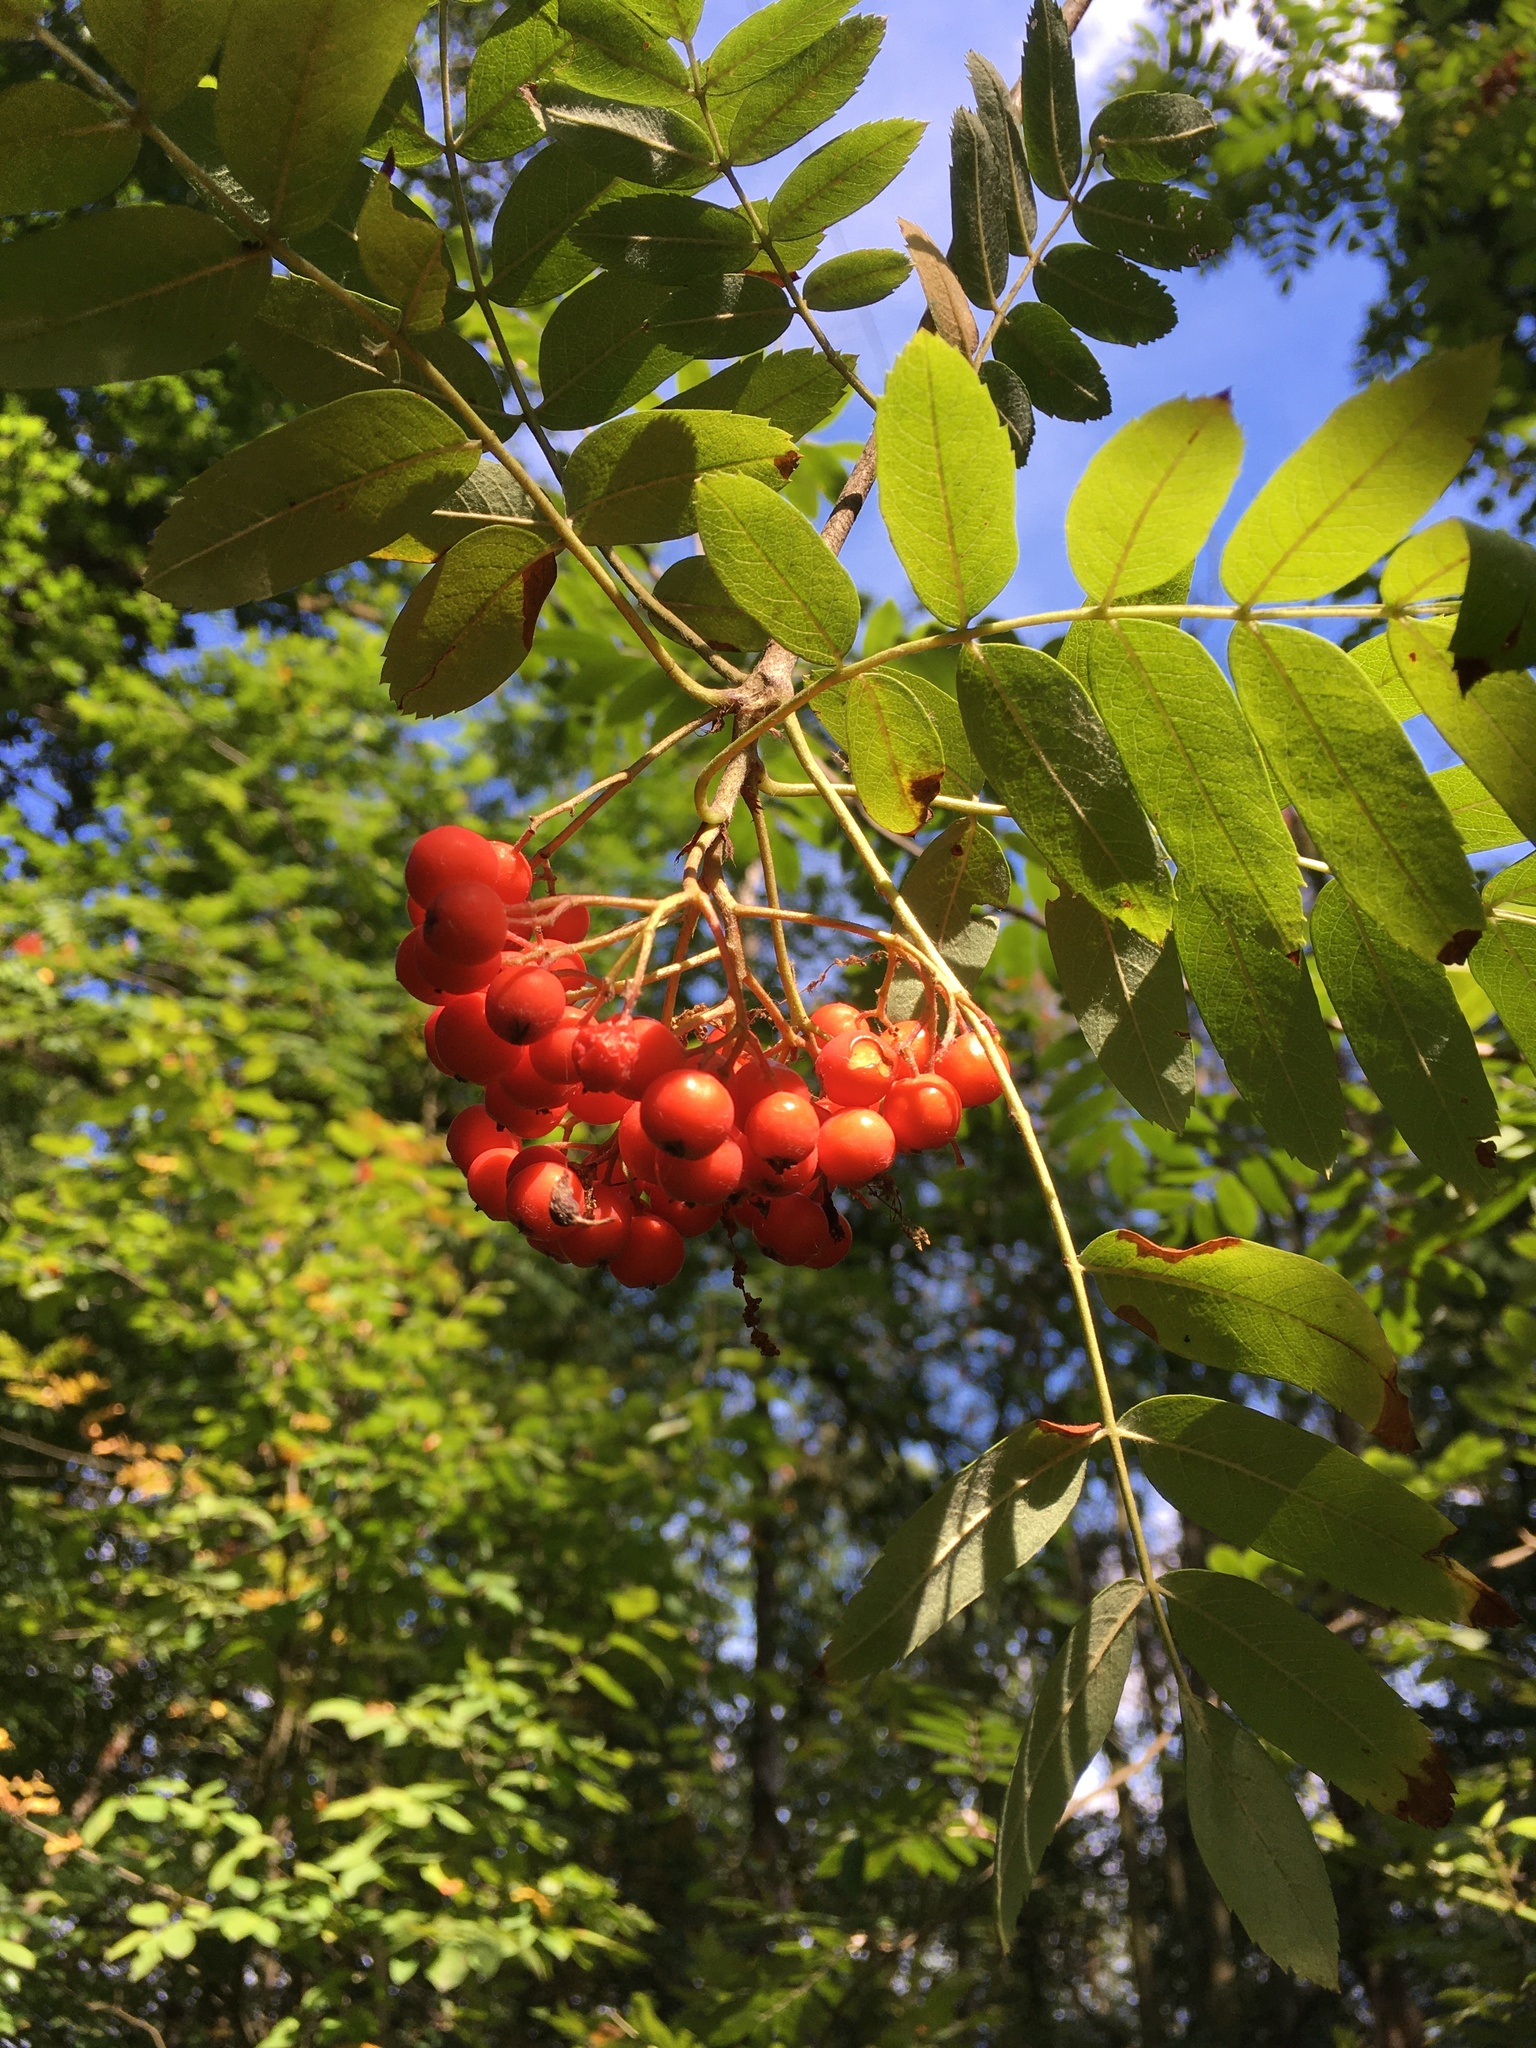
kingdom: Plantae
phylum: Tracheophyta
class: Magnoliopsida
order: Rosales
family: Rosaceae
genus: Sorbus
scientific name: Sorbus aucuparia
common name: Rowan
